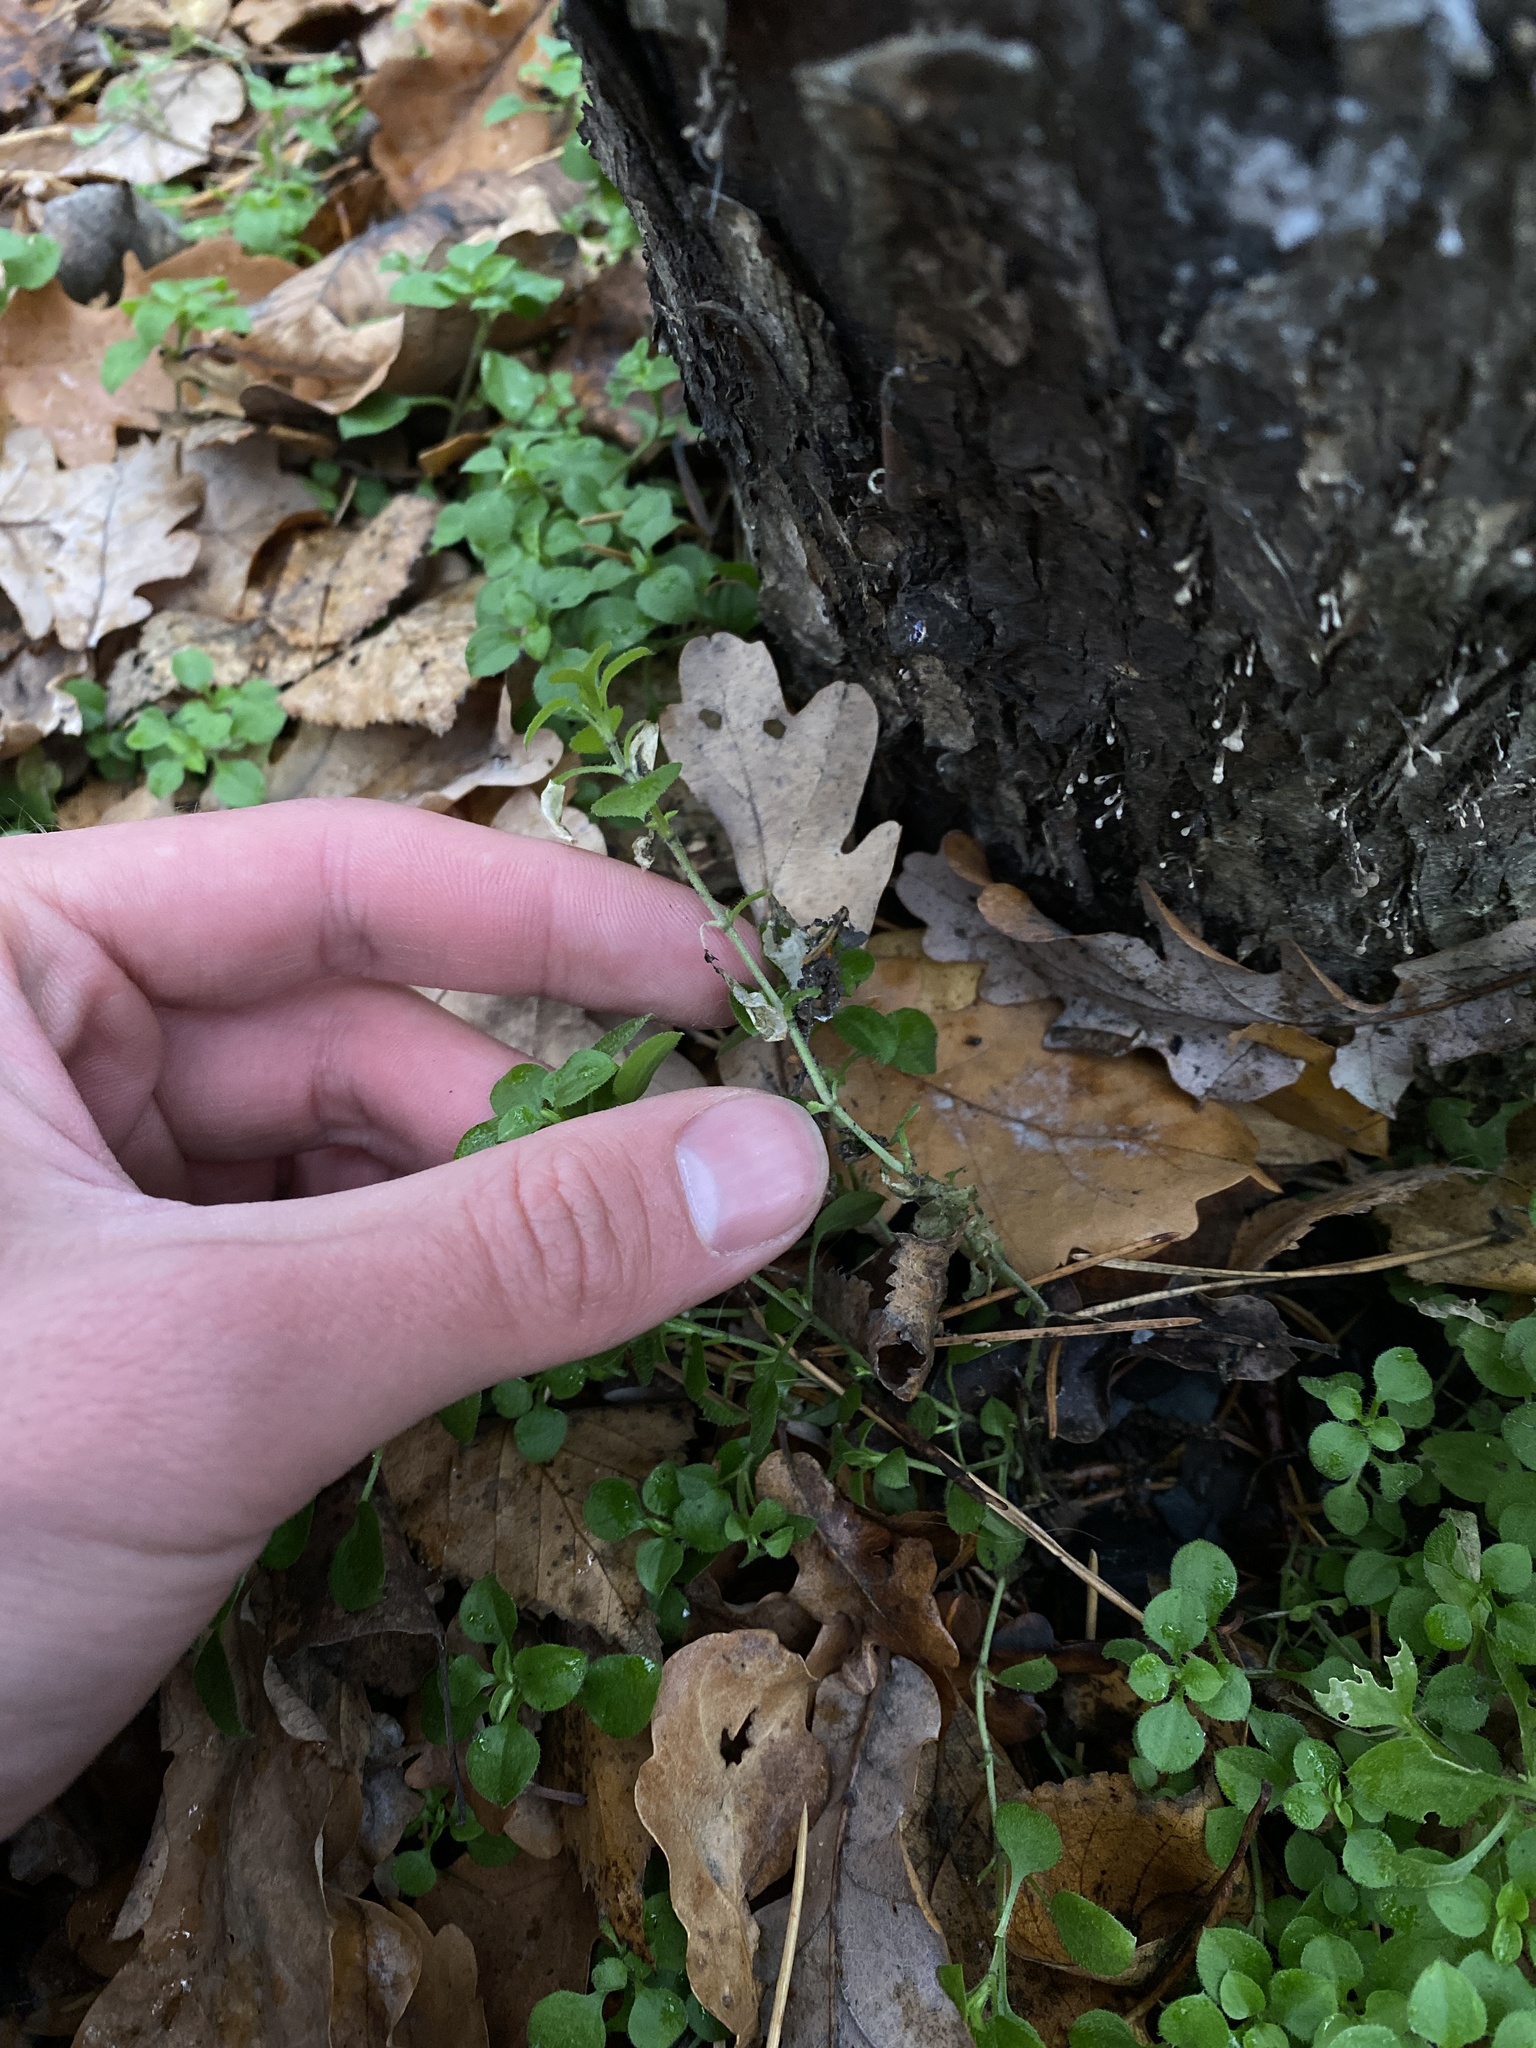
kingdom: Plantae
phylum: Tracheophyta
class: Magnoliopsida
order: Caryophyllales
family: Caryophyllaceae
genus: Moehringia
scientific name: Moehringia trinervia
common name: Three-nerved sandwort
